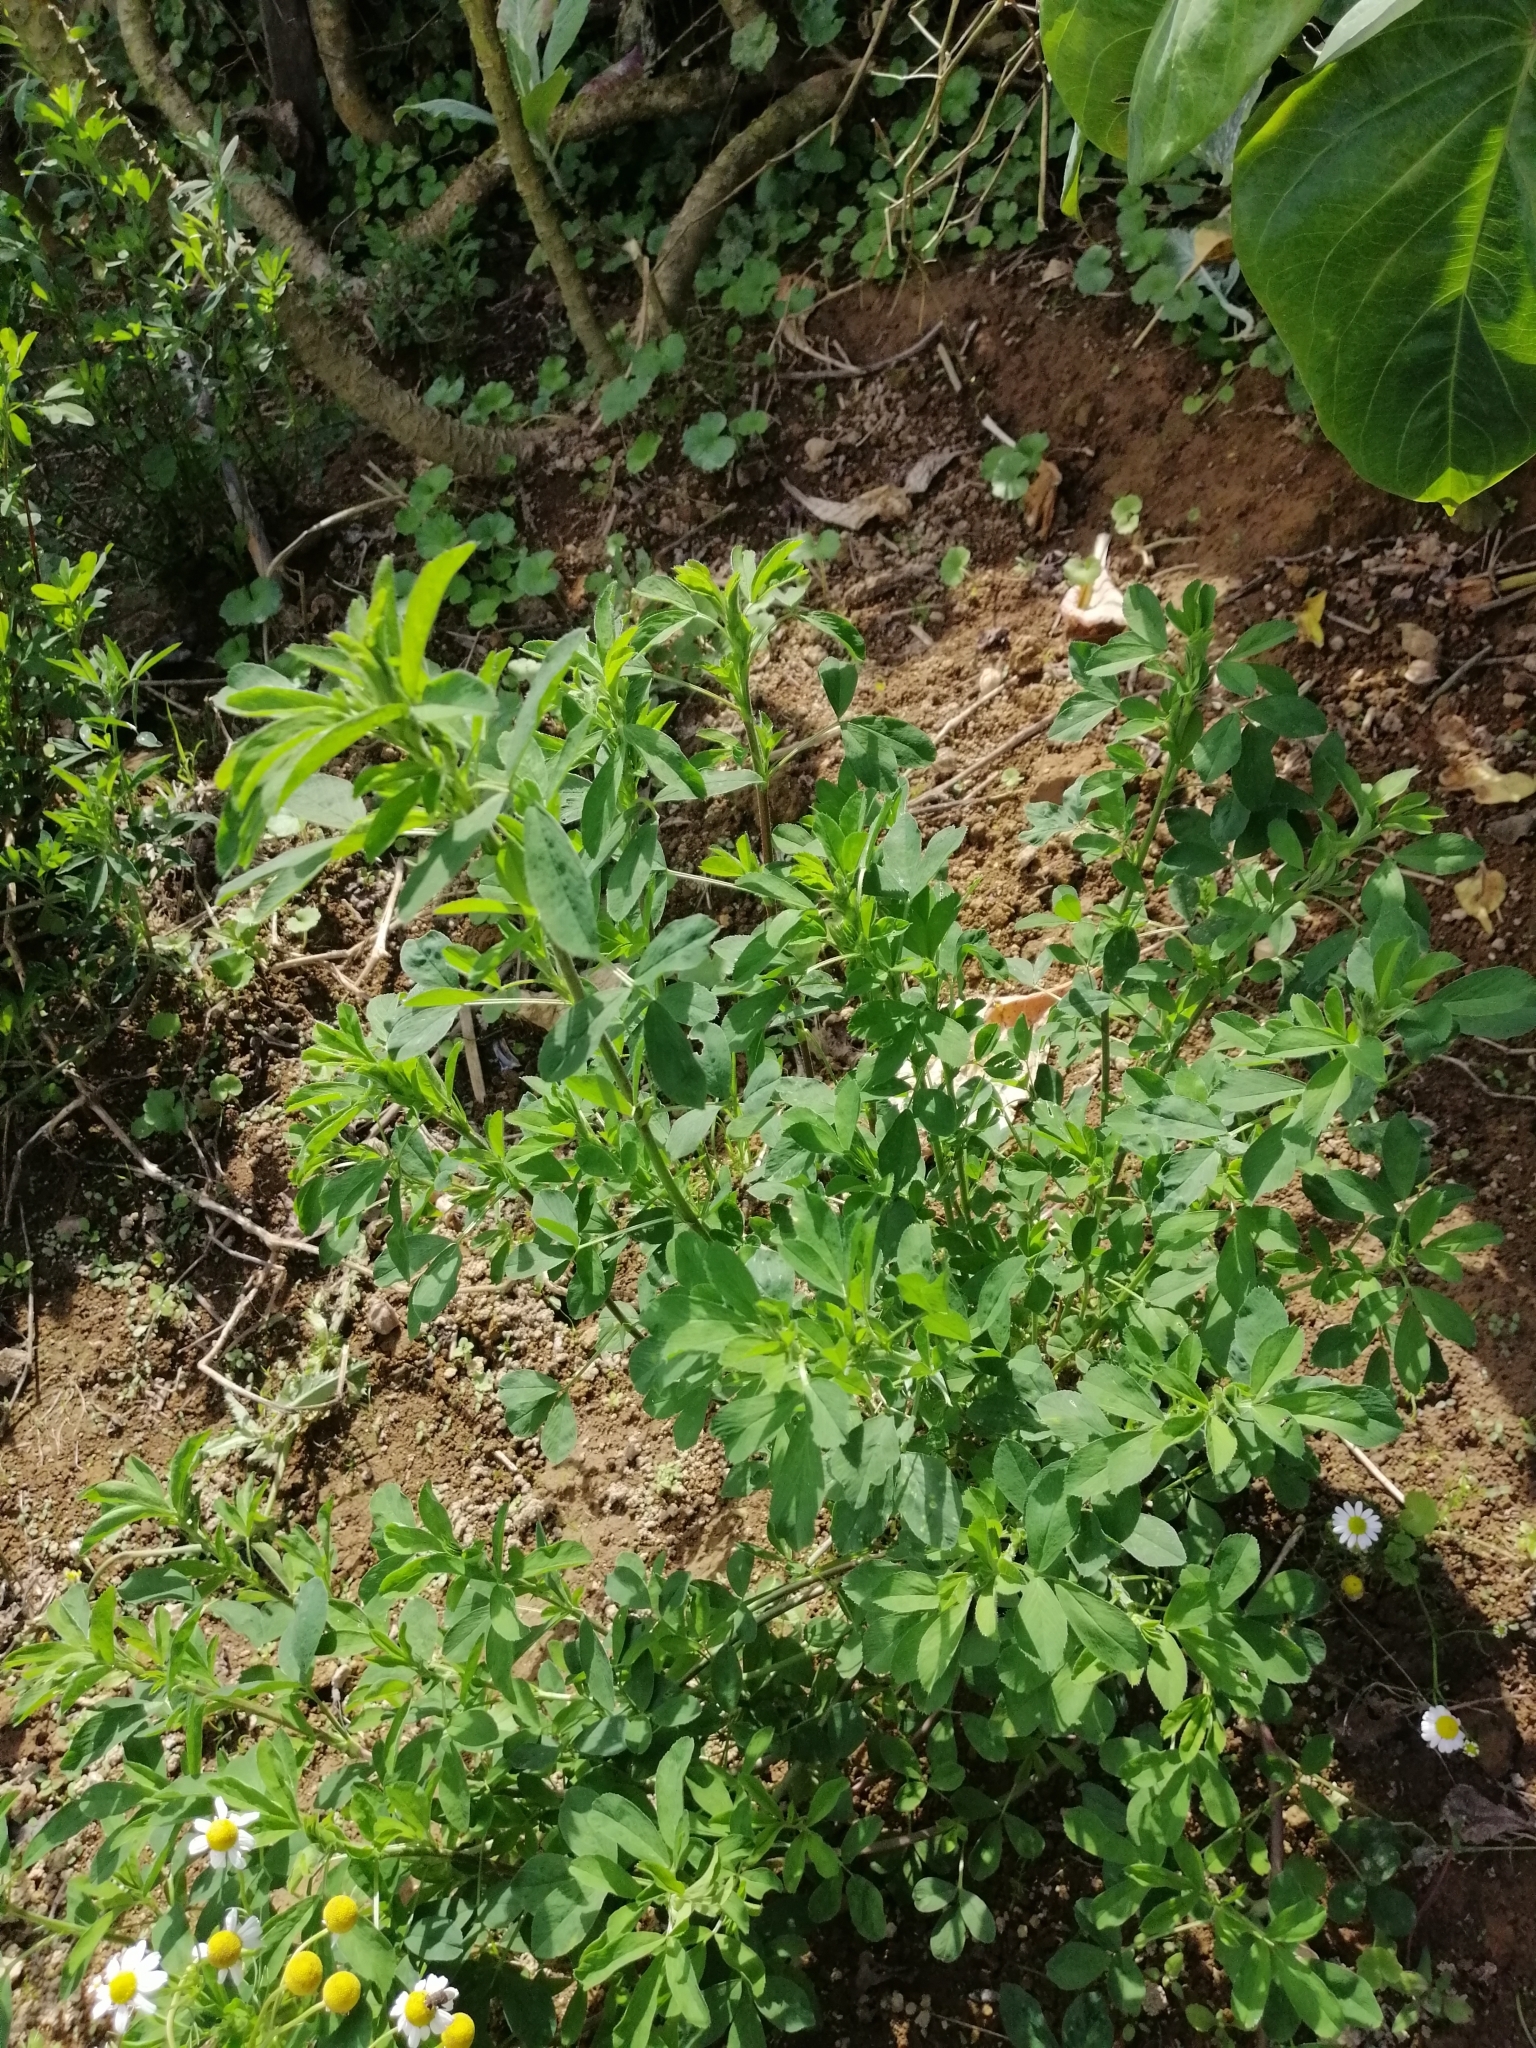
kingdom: Plantae
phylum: Tracheophyta
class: Magnoliopsida
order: Fabales
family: Fabaceae
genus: Medicago
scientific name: Medicago sativa
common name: Alfalfa
